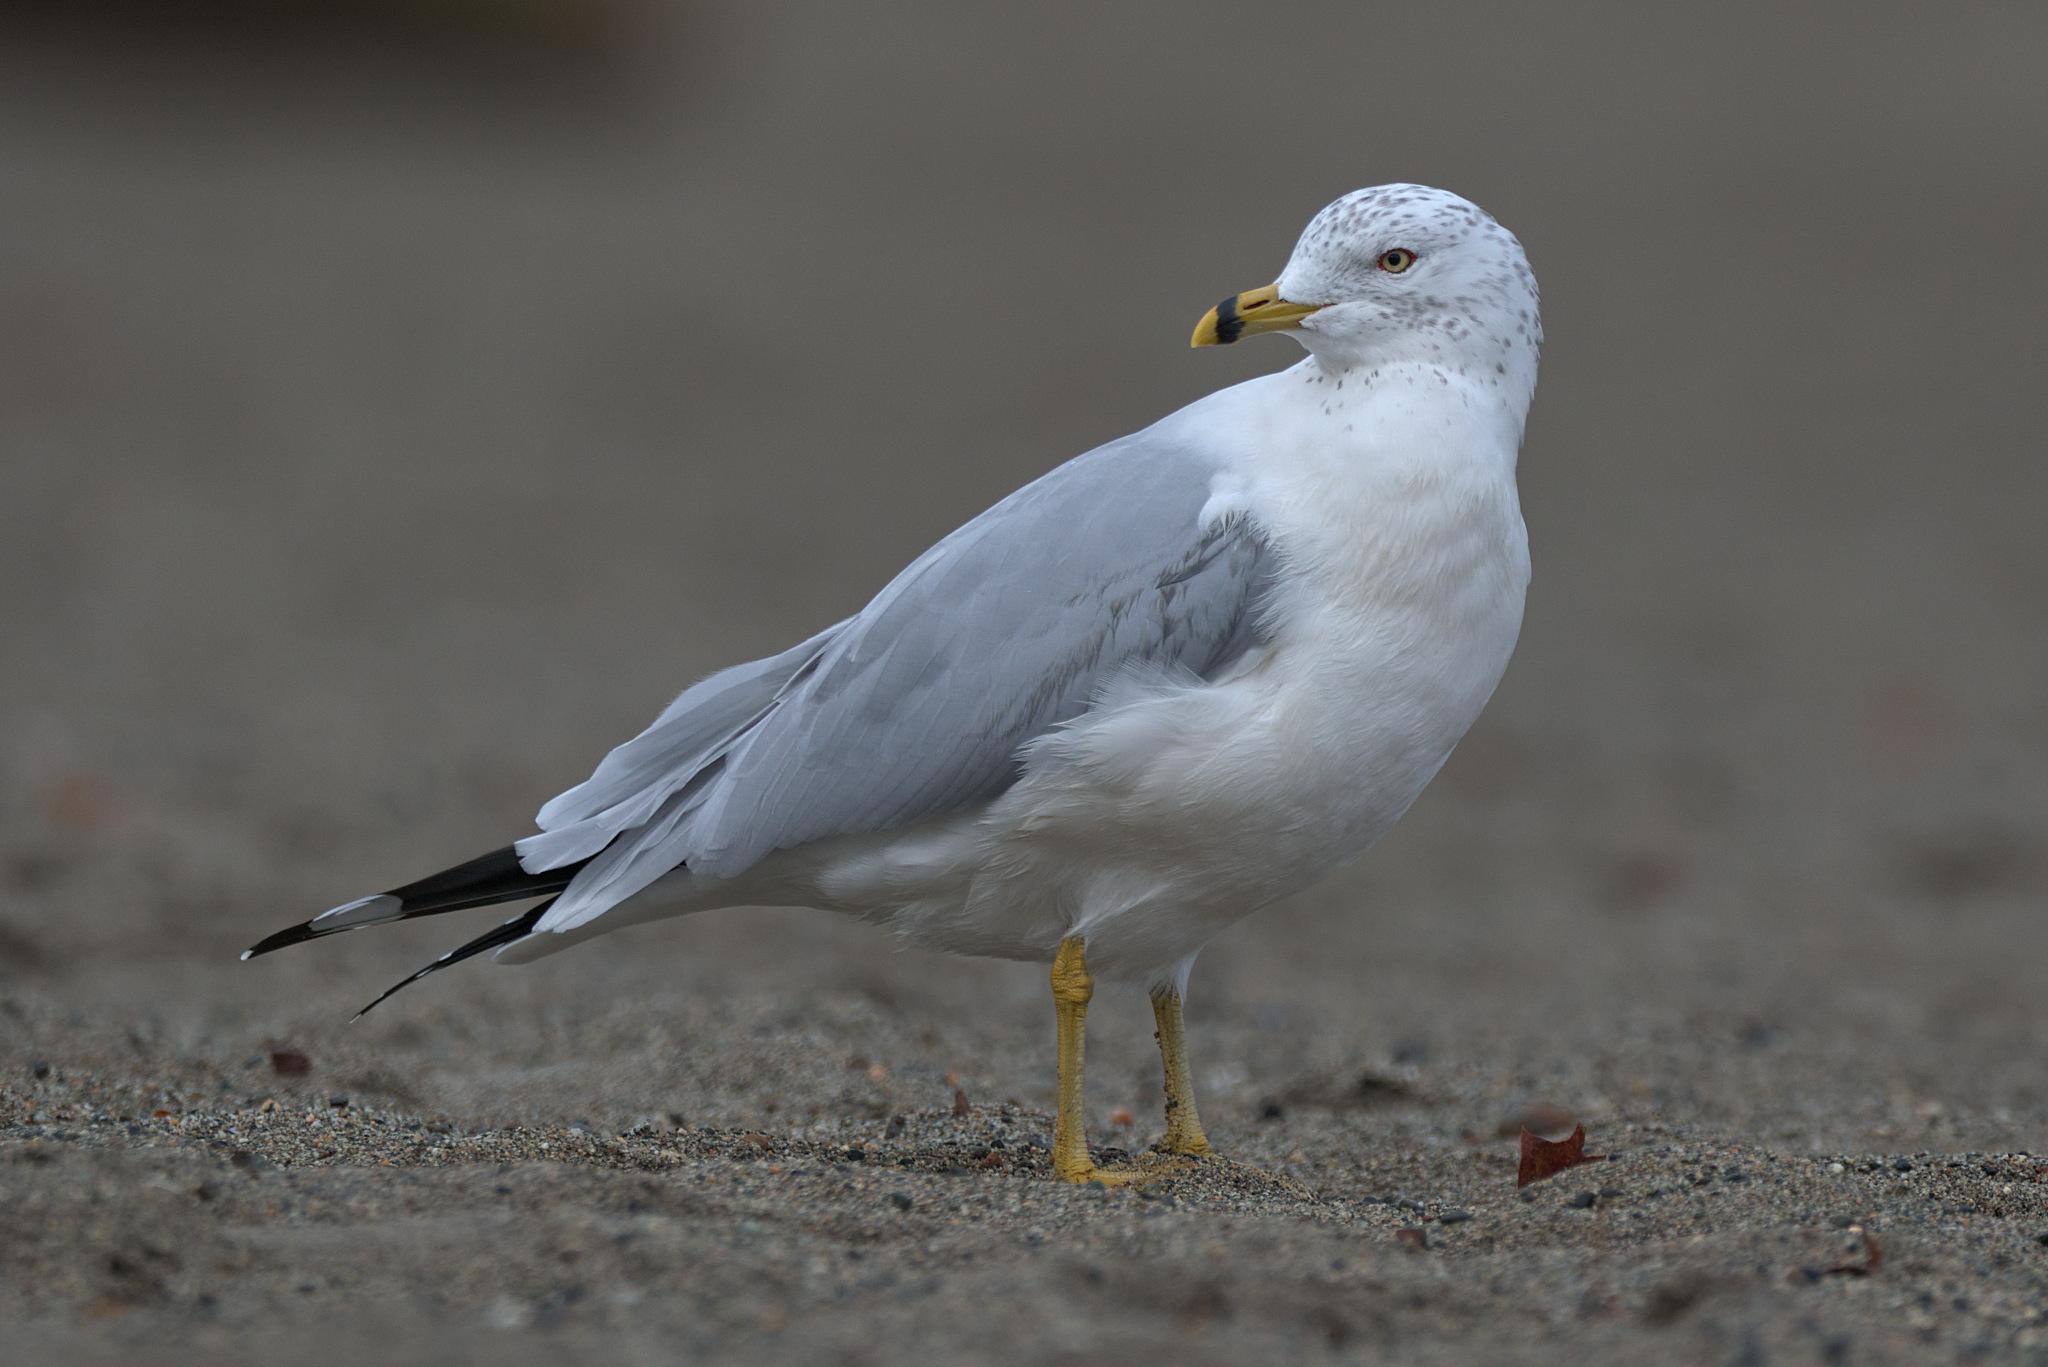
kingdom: Animalia
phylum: Chordata
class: Aves
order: Charadriiformes
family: Laridae
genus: Larus
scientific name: Larus delawarensis
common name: Ring-billed gull
